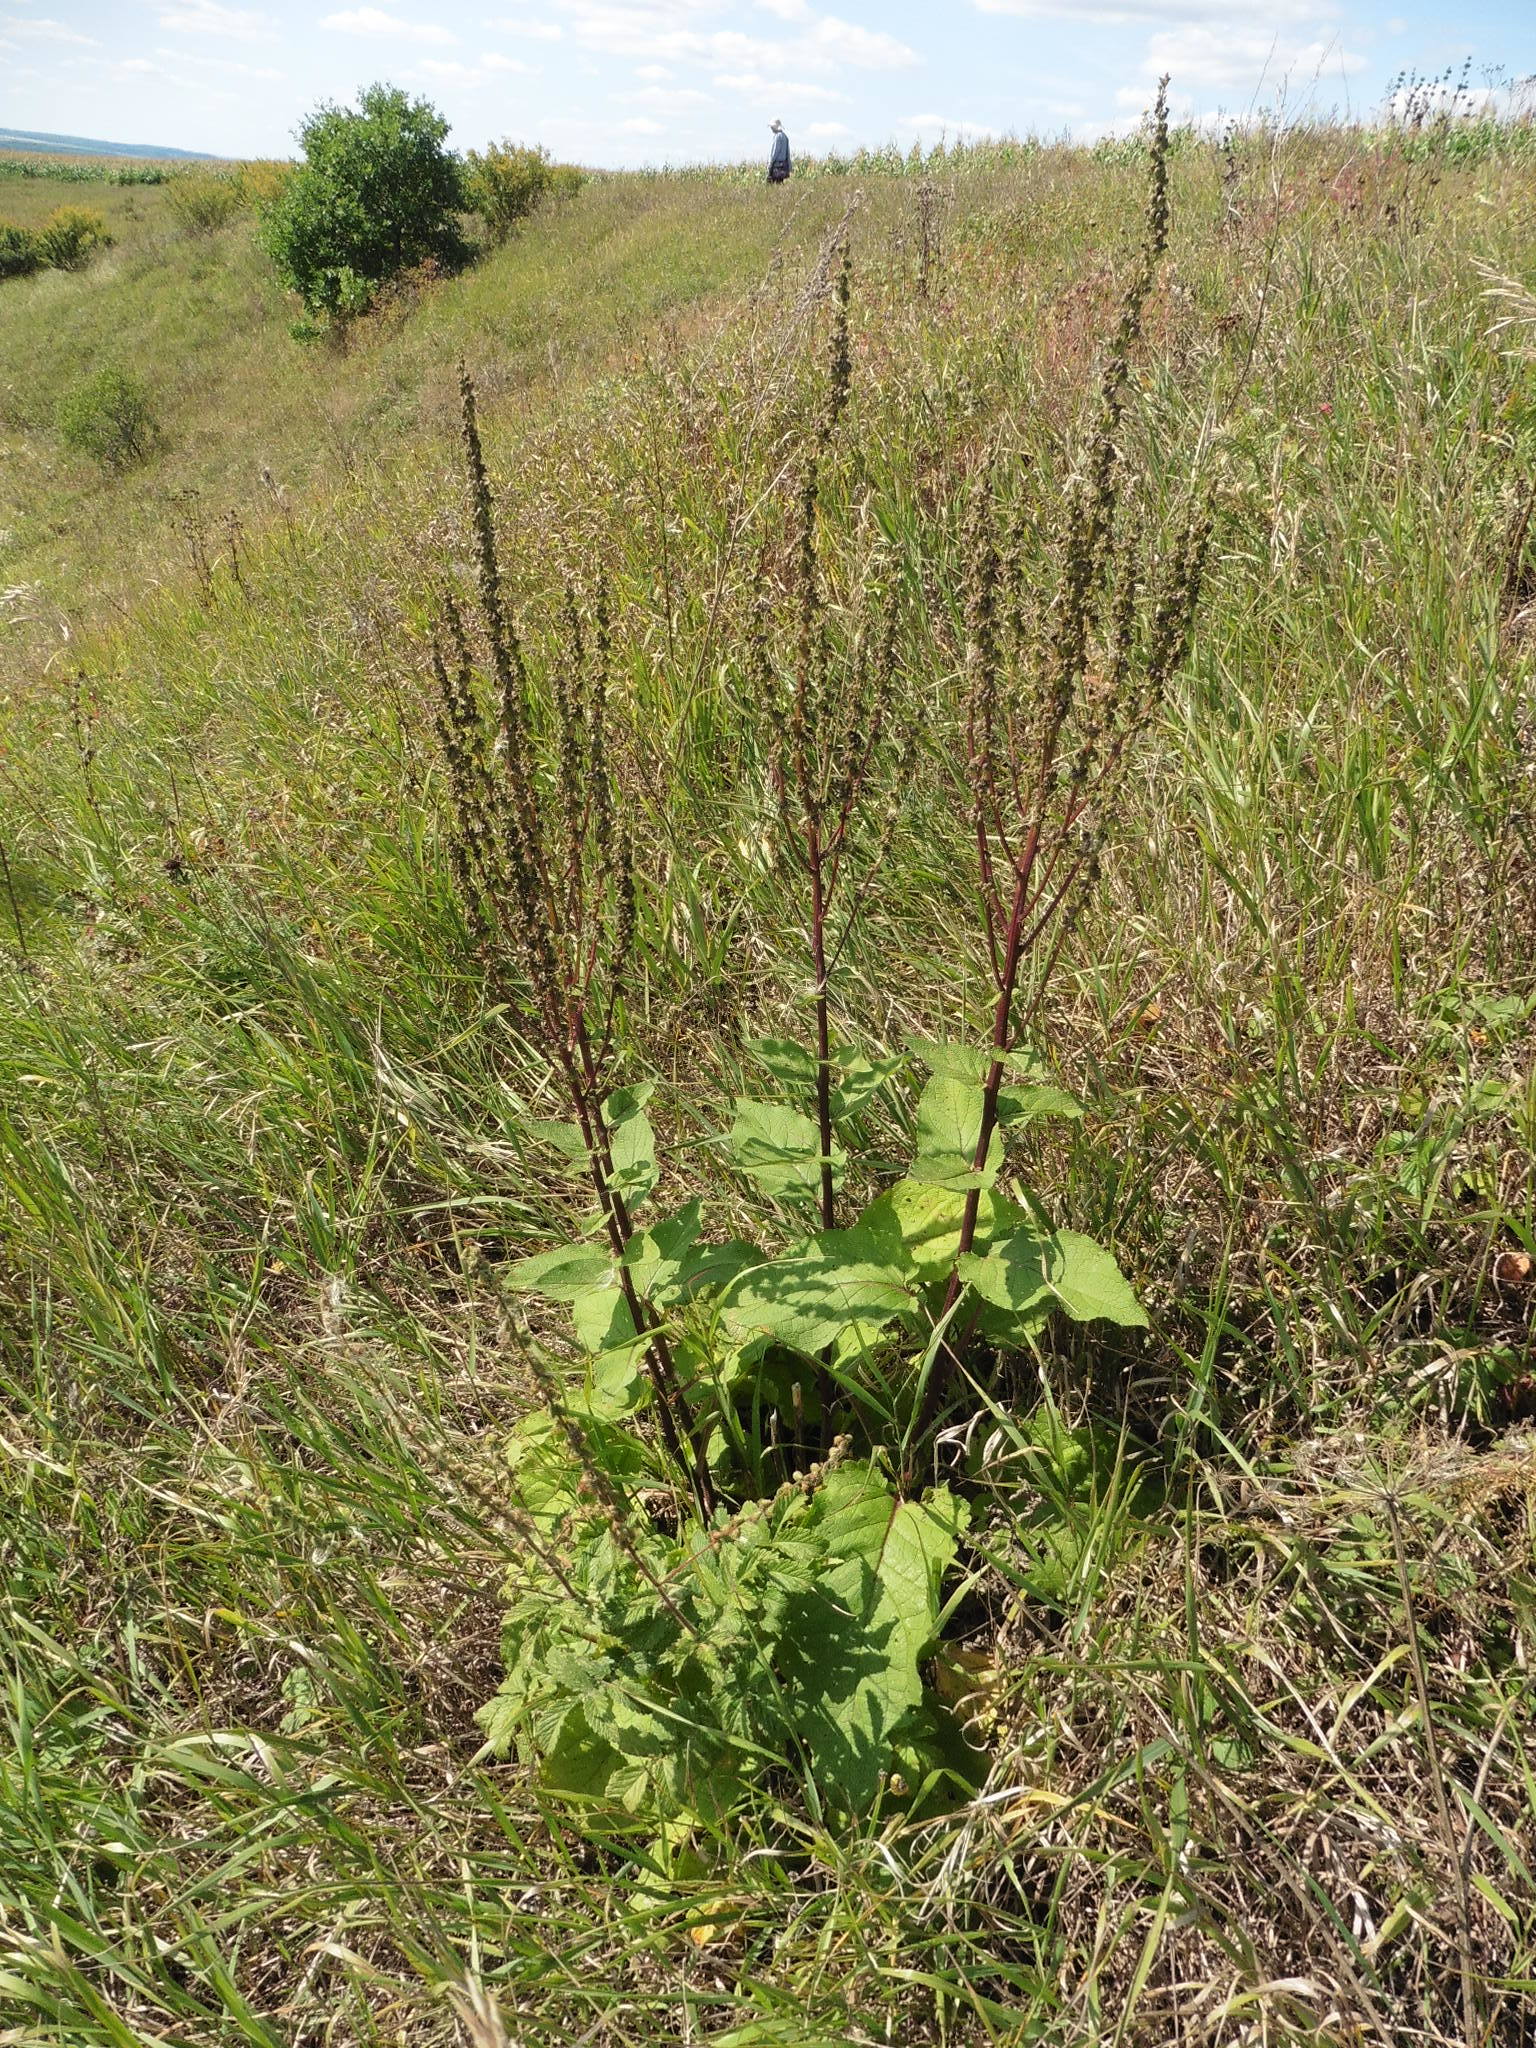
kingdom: Plantae
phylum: Tracheophyta
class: Magnoliopsida
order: Lamiales
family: Scrophulariaceae
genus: Verbascum
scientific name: Verbascum nigrum
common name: Dark mullein
